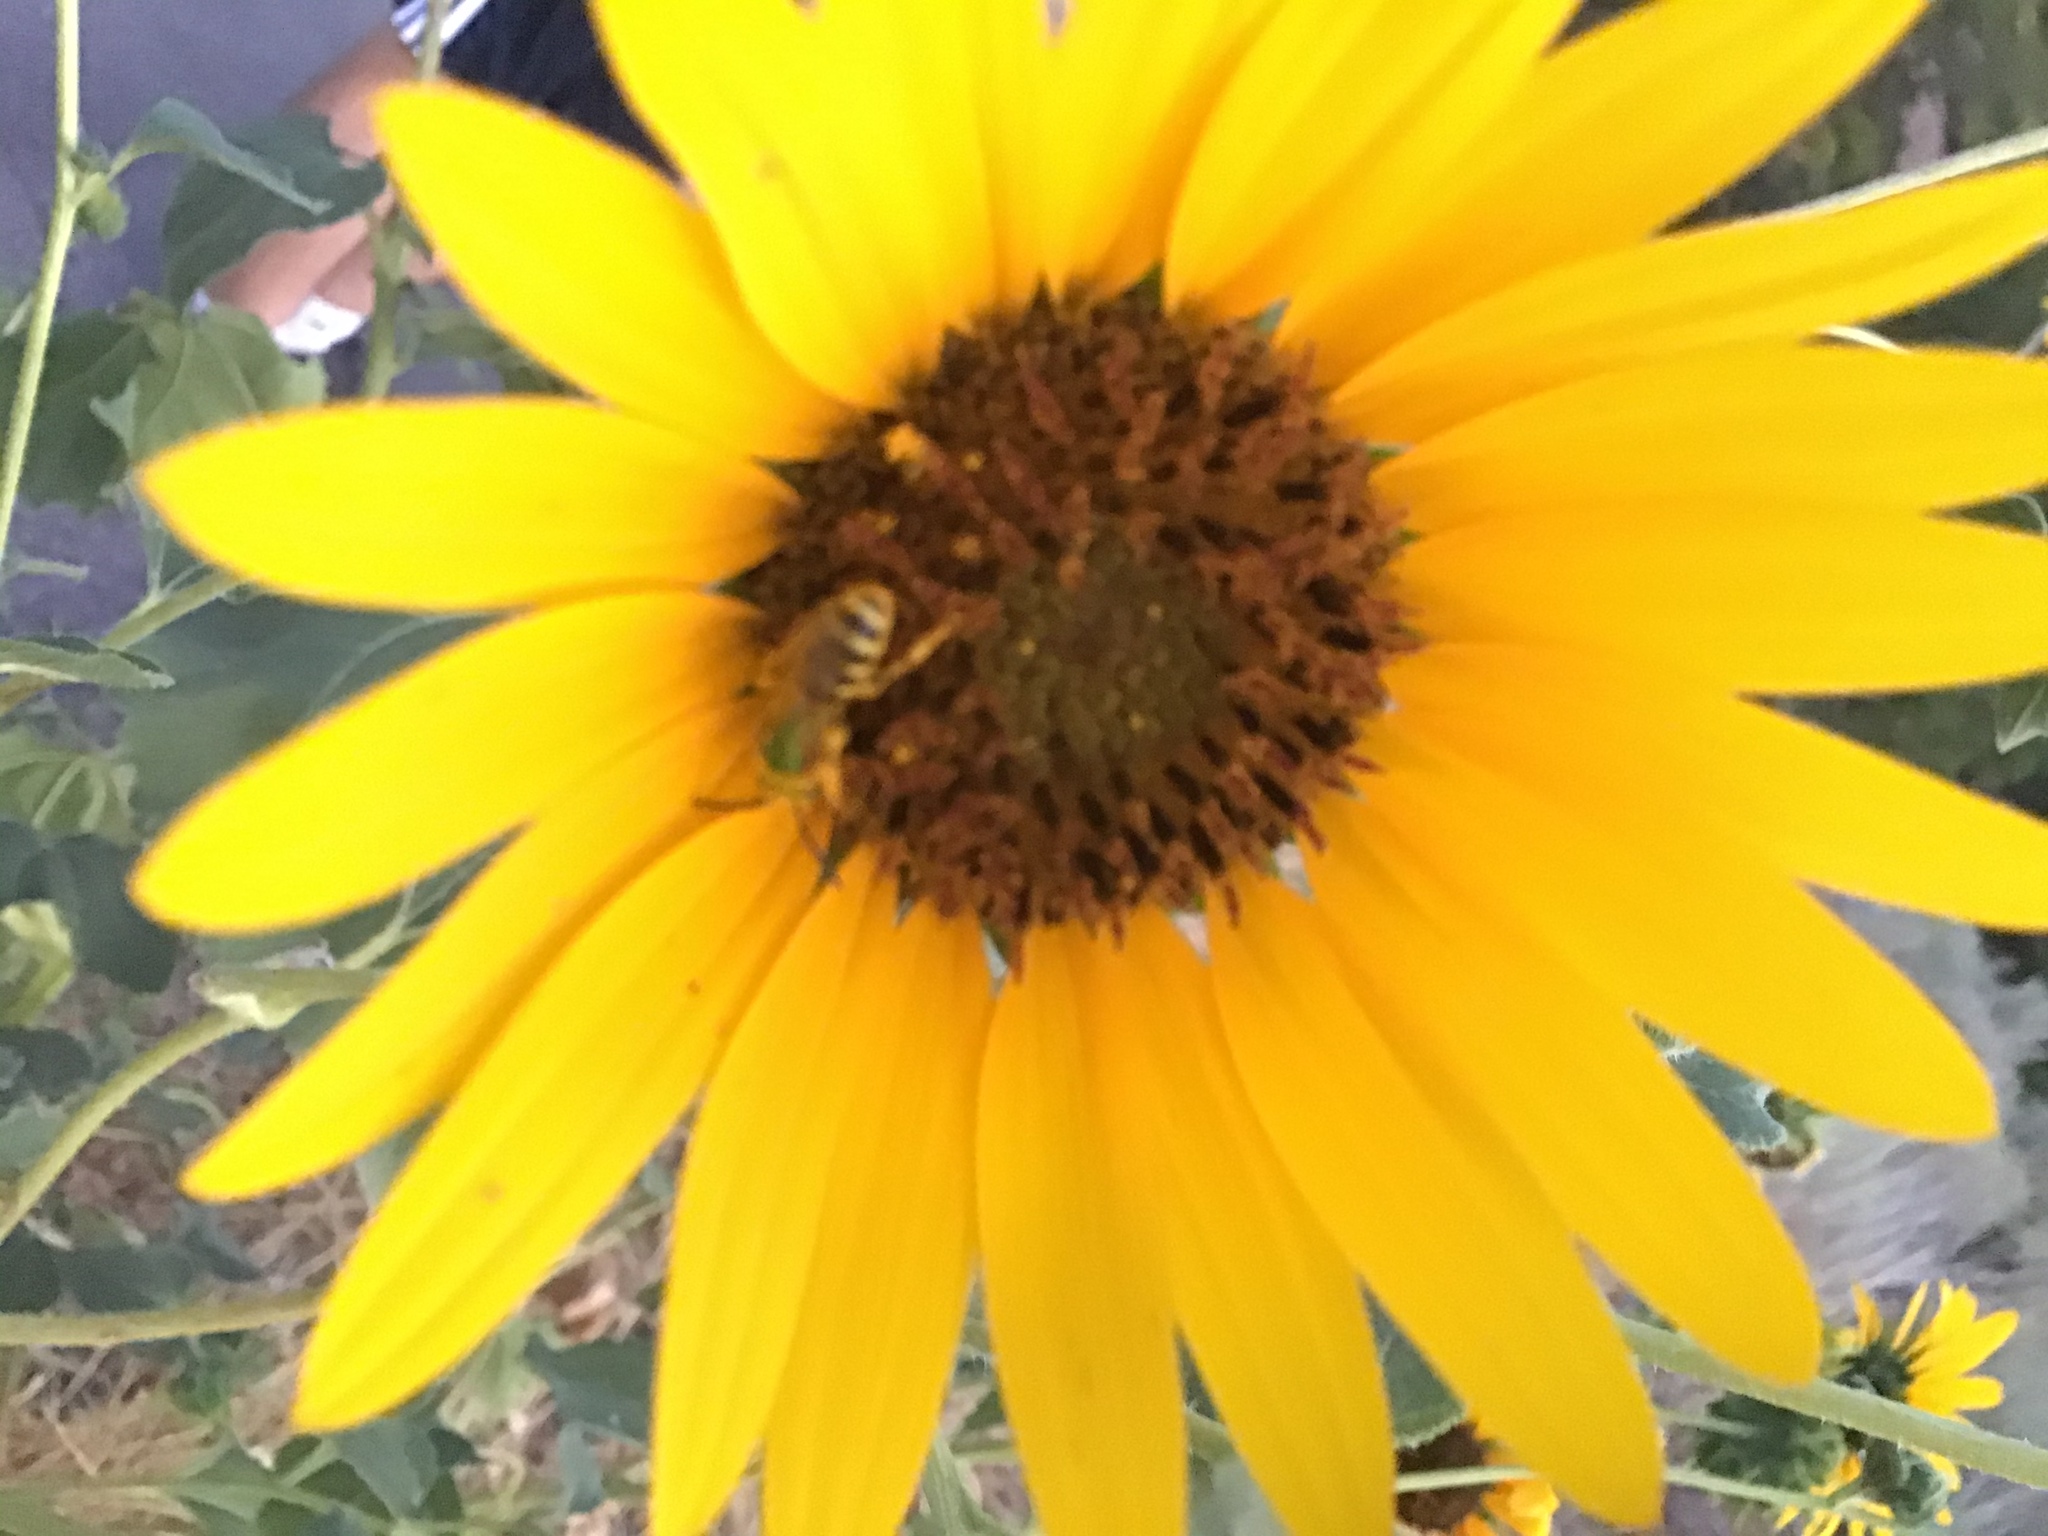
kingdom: Animalia
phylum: Arthropoda
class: Insecta
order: Hymenoptera
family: Halictidae
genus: Agapostemon
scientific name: Agapostemon
